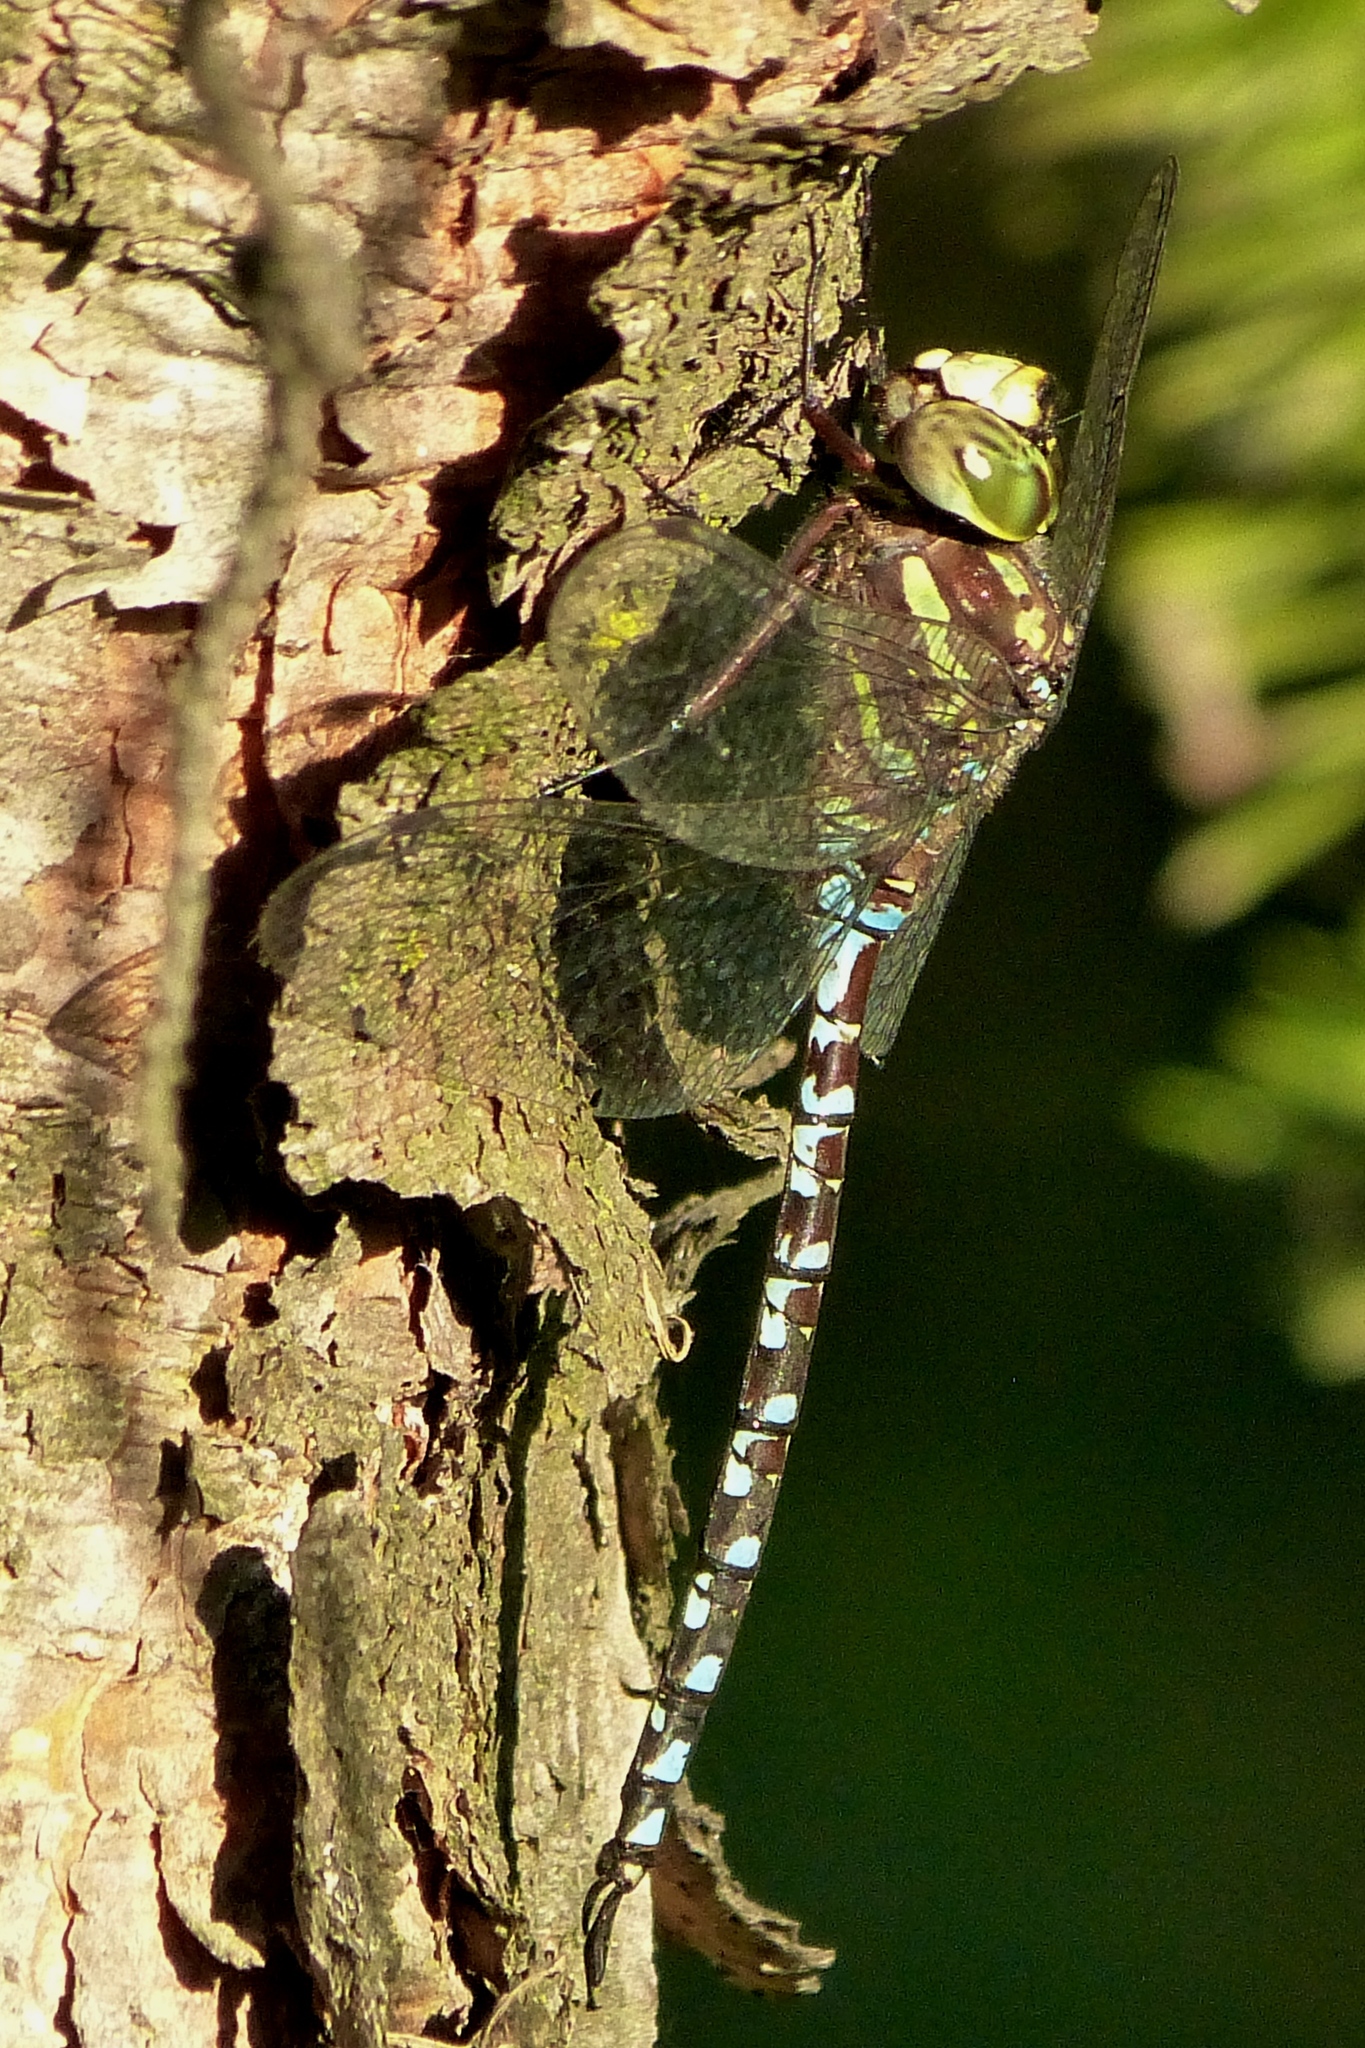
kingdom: Animalia
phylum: Arthropoda
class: Insecta
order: Odonata
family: Aeshnidae
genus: Aeshna
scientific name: Aeshna verticalis
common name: Green-striped darner
